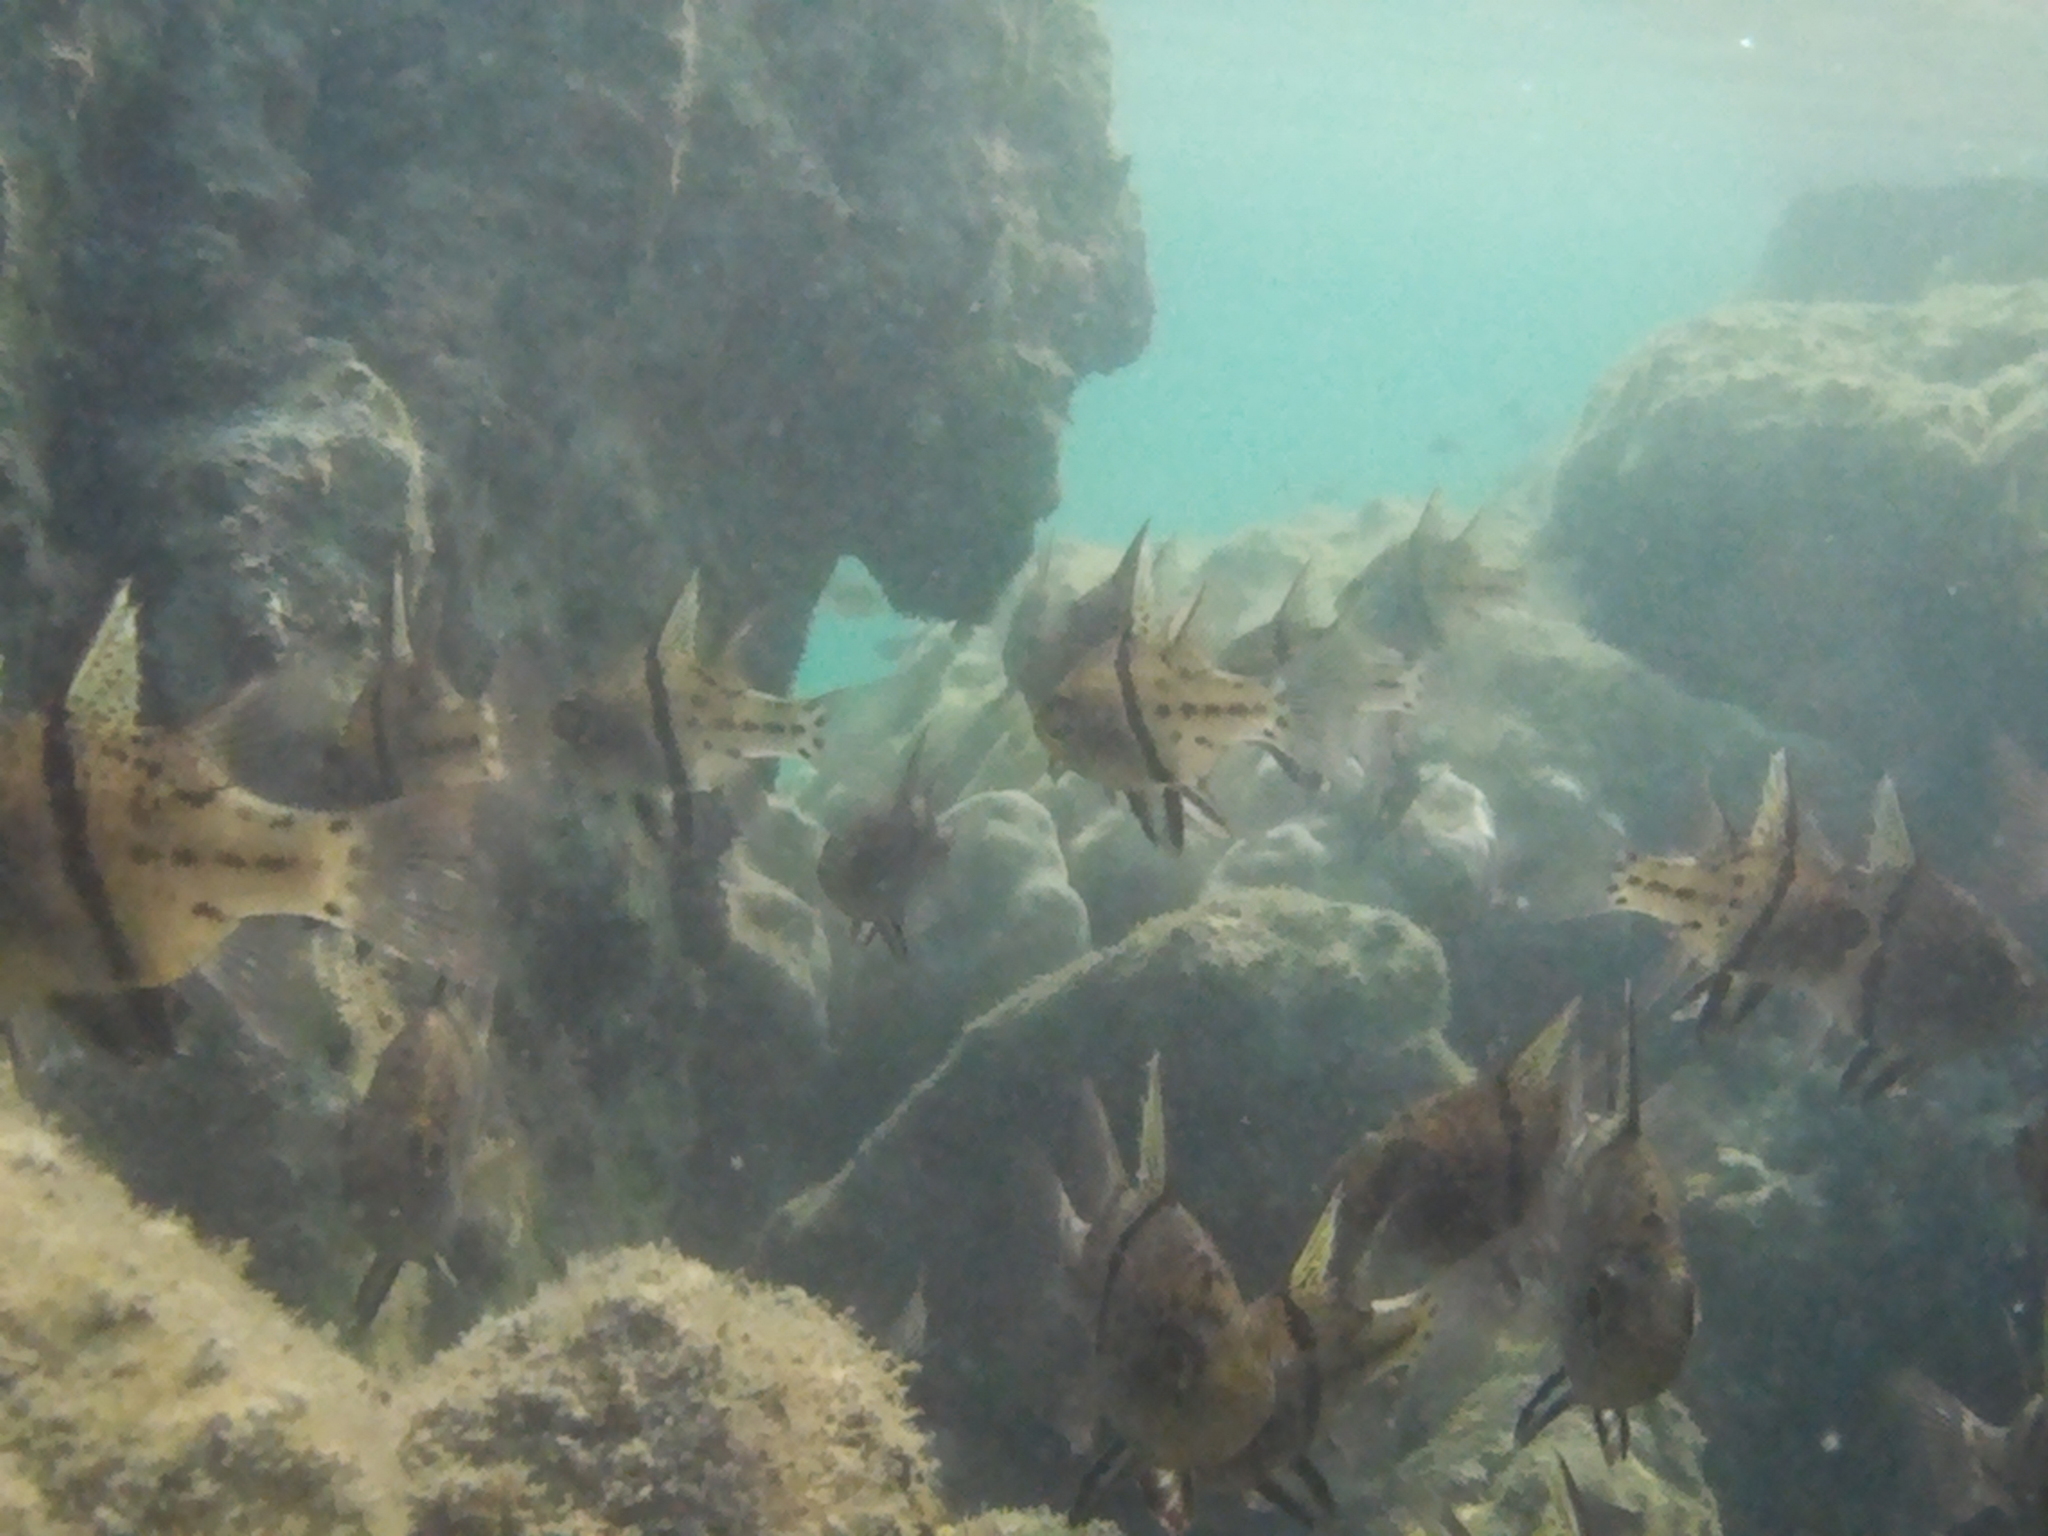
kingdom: Animalia
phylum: Chordata
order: Perciformes
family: Apogonidae
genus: Sphaeramia
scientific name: Sphaeramia orbicularis
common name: Polka-dot cardinalfish
